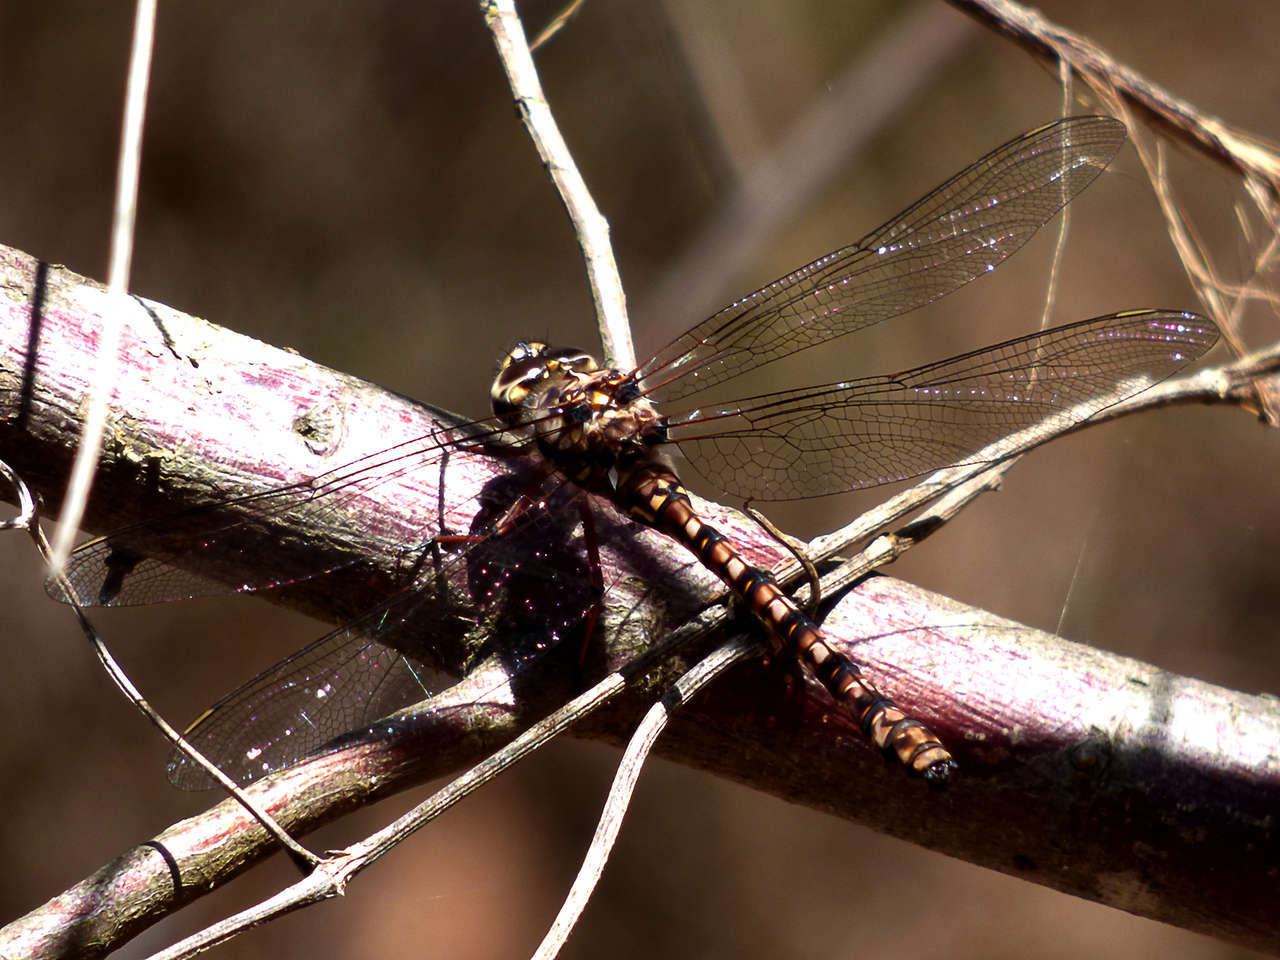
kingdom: Animalia
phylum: Arthropoda
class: Insecta
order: Odonata
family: Aeshnidae
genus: Austroaeschna
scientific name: Austroaeschna subapicalis
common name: Conehead darner
